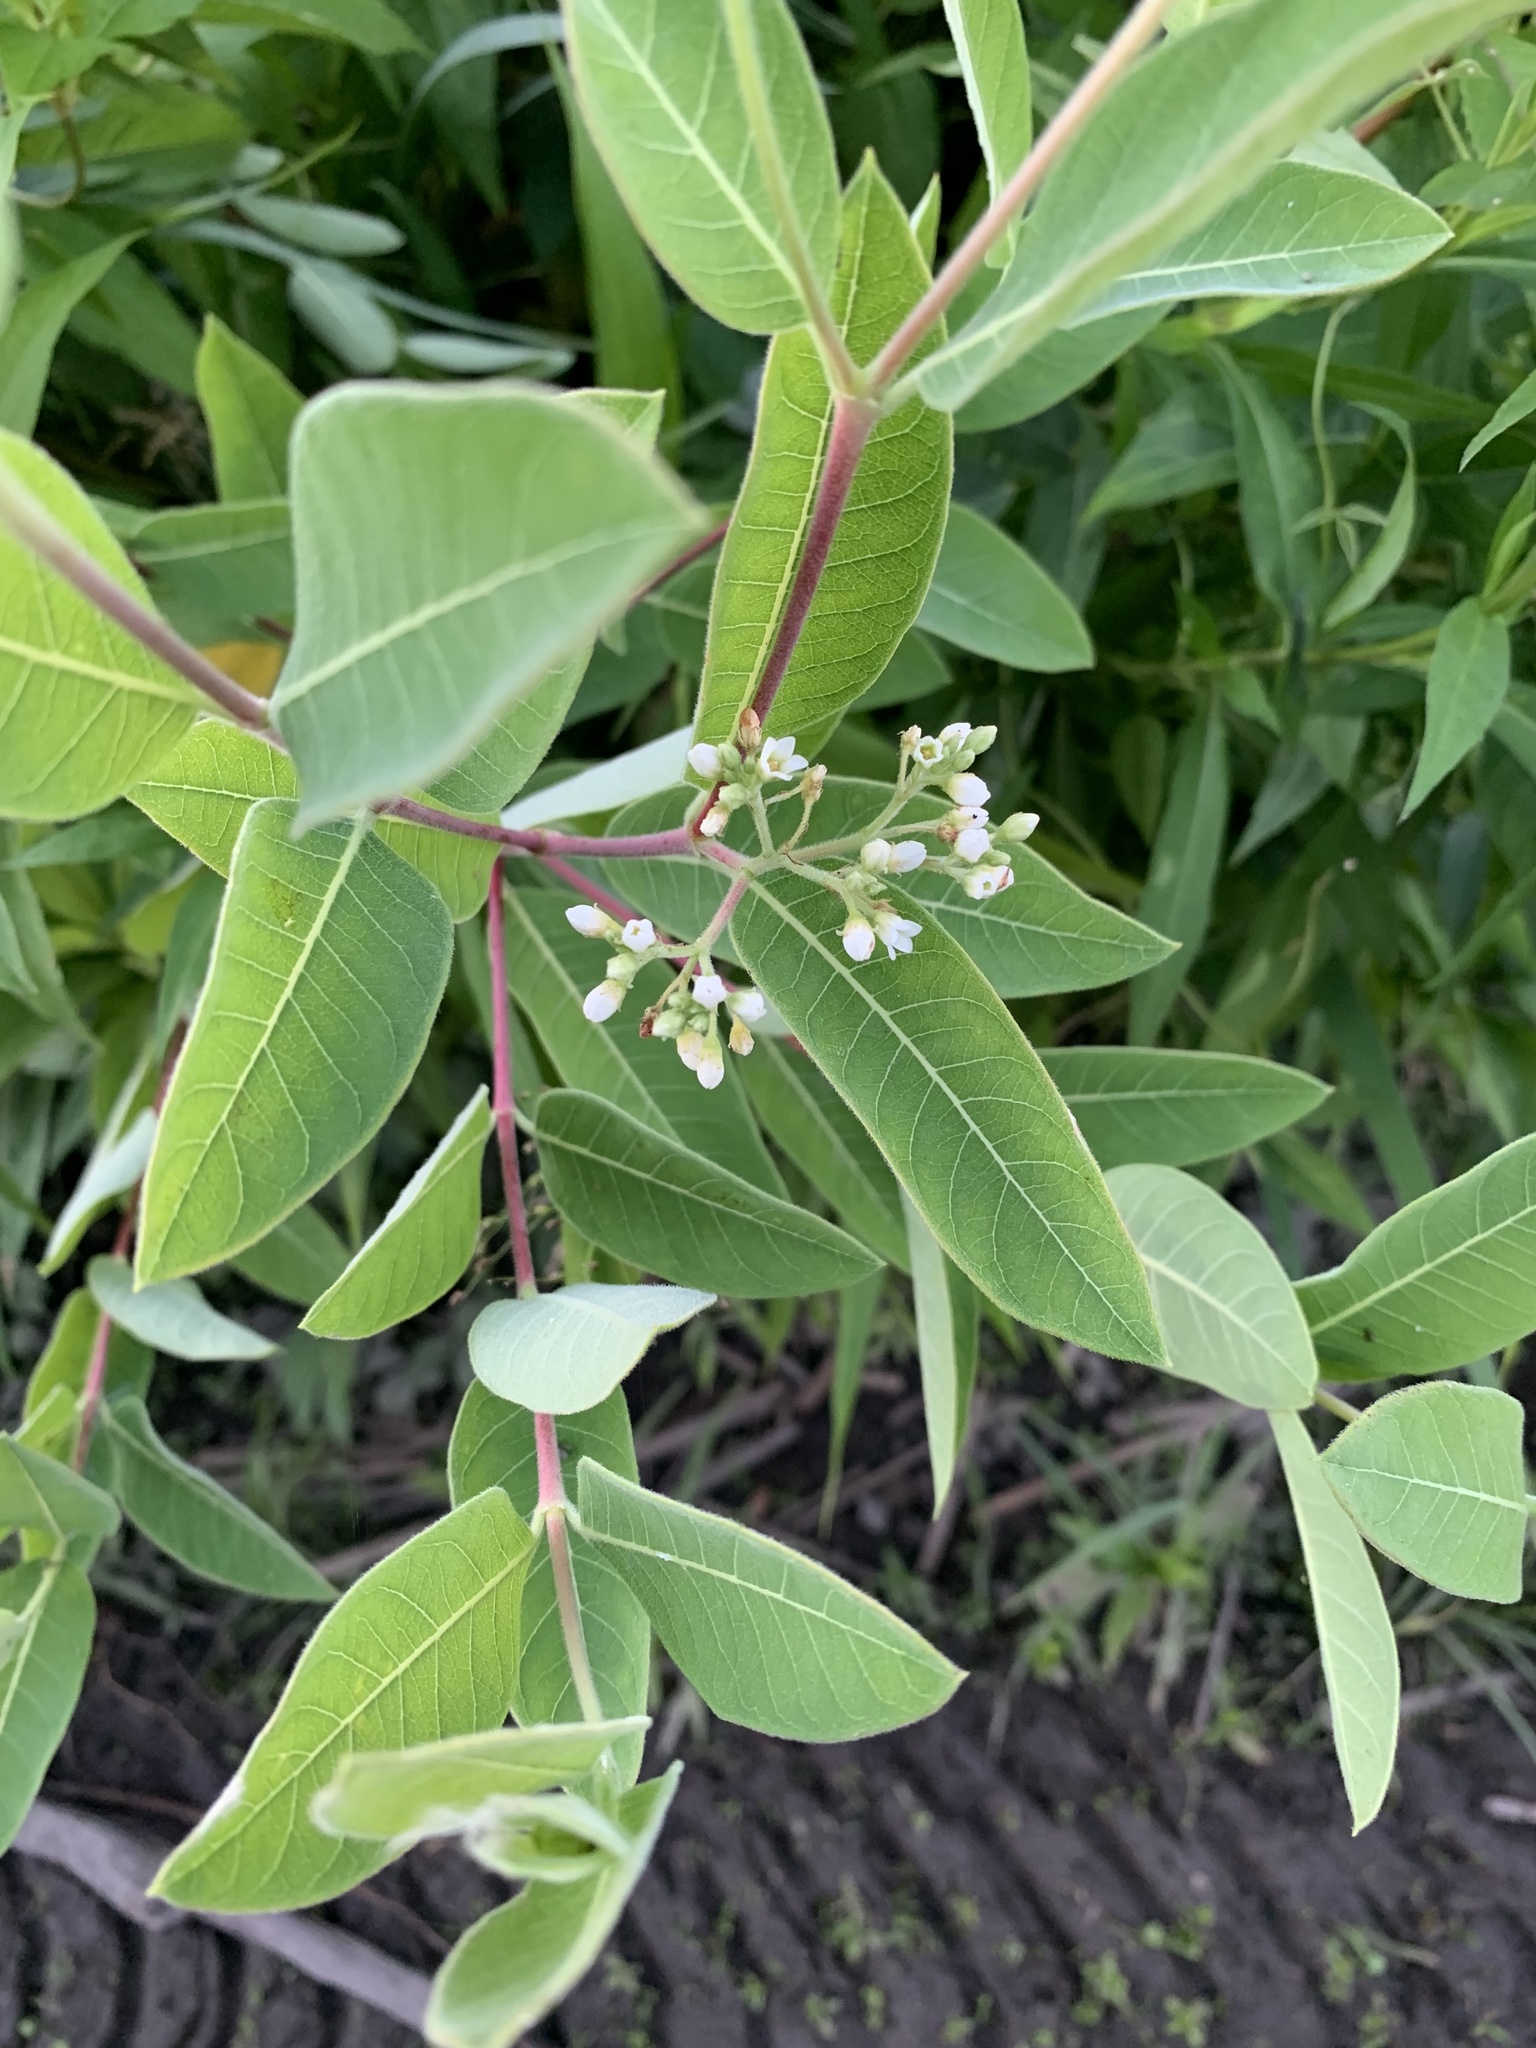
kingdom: Plantae
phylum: Tracheophyta
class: Magnoliopsida
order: Gentianales
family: Apocynaceae
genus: Apocynum
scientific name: Apocynum cannabinum
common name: Hemp dogbane
